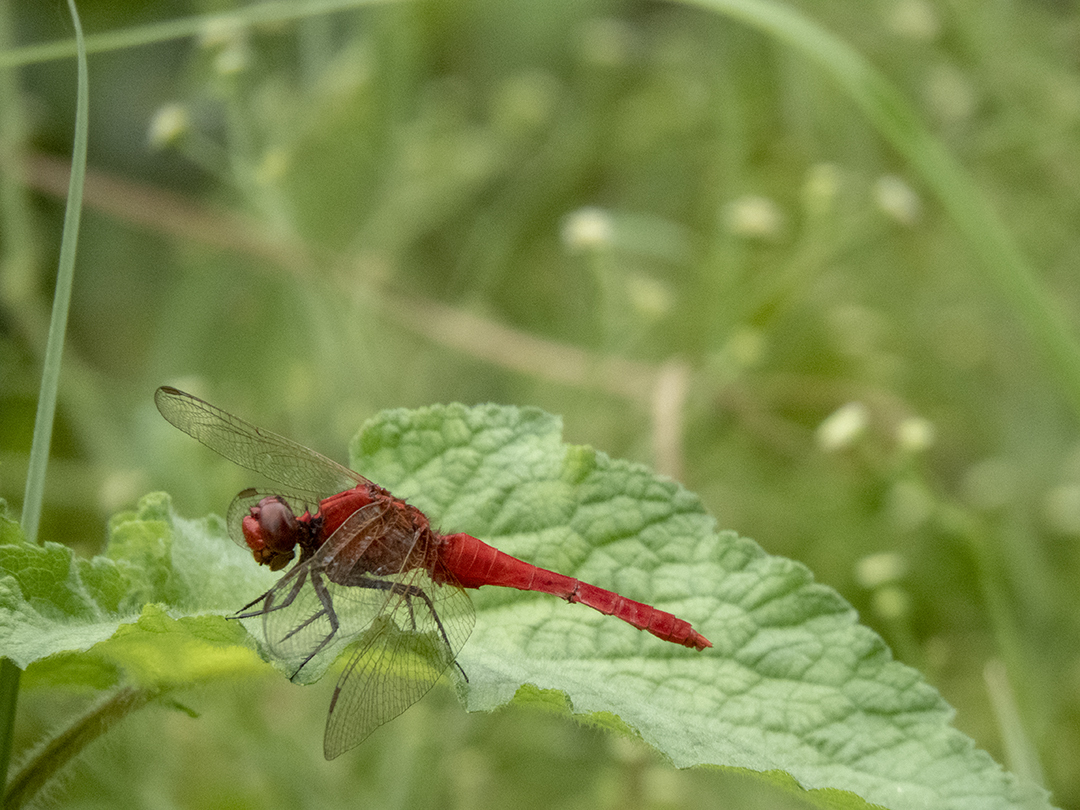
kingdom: Animalia
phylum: Arthropoda
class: Insecta
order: Odonata
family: Libellulidae
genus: Rhodothemis
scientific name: Rhodothemis rufa
